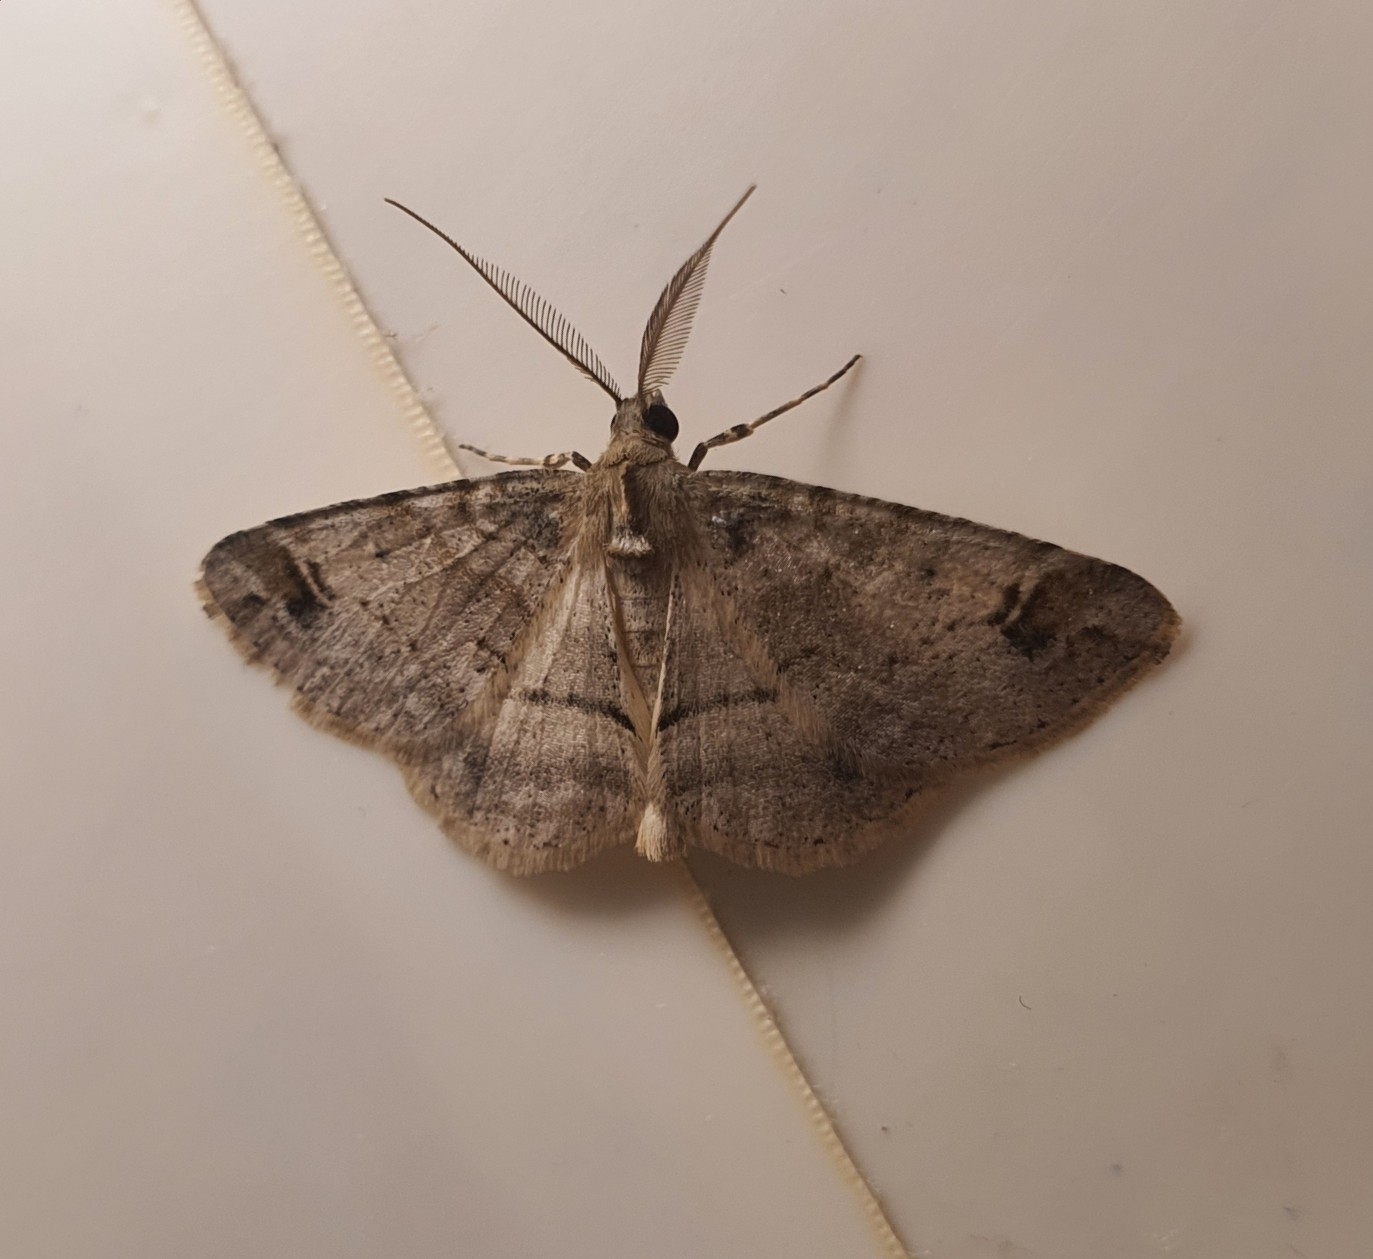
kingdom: Animalia
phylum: Arthropoda
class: Insecta
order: Lepidoptera
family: Geometridae
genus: Syneora
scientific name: Syneora hemeropa
